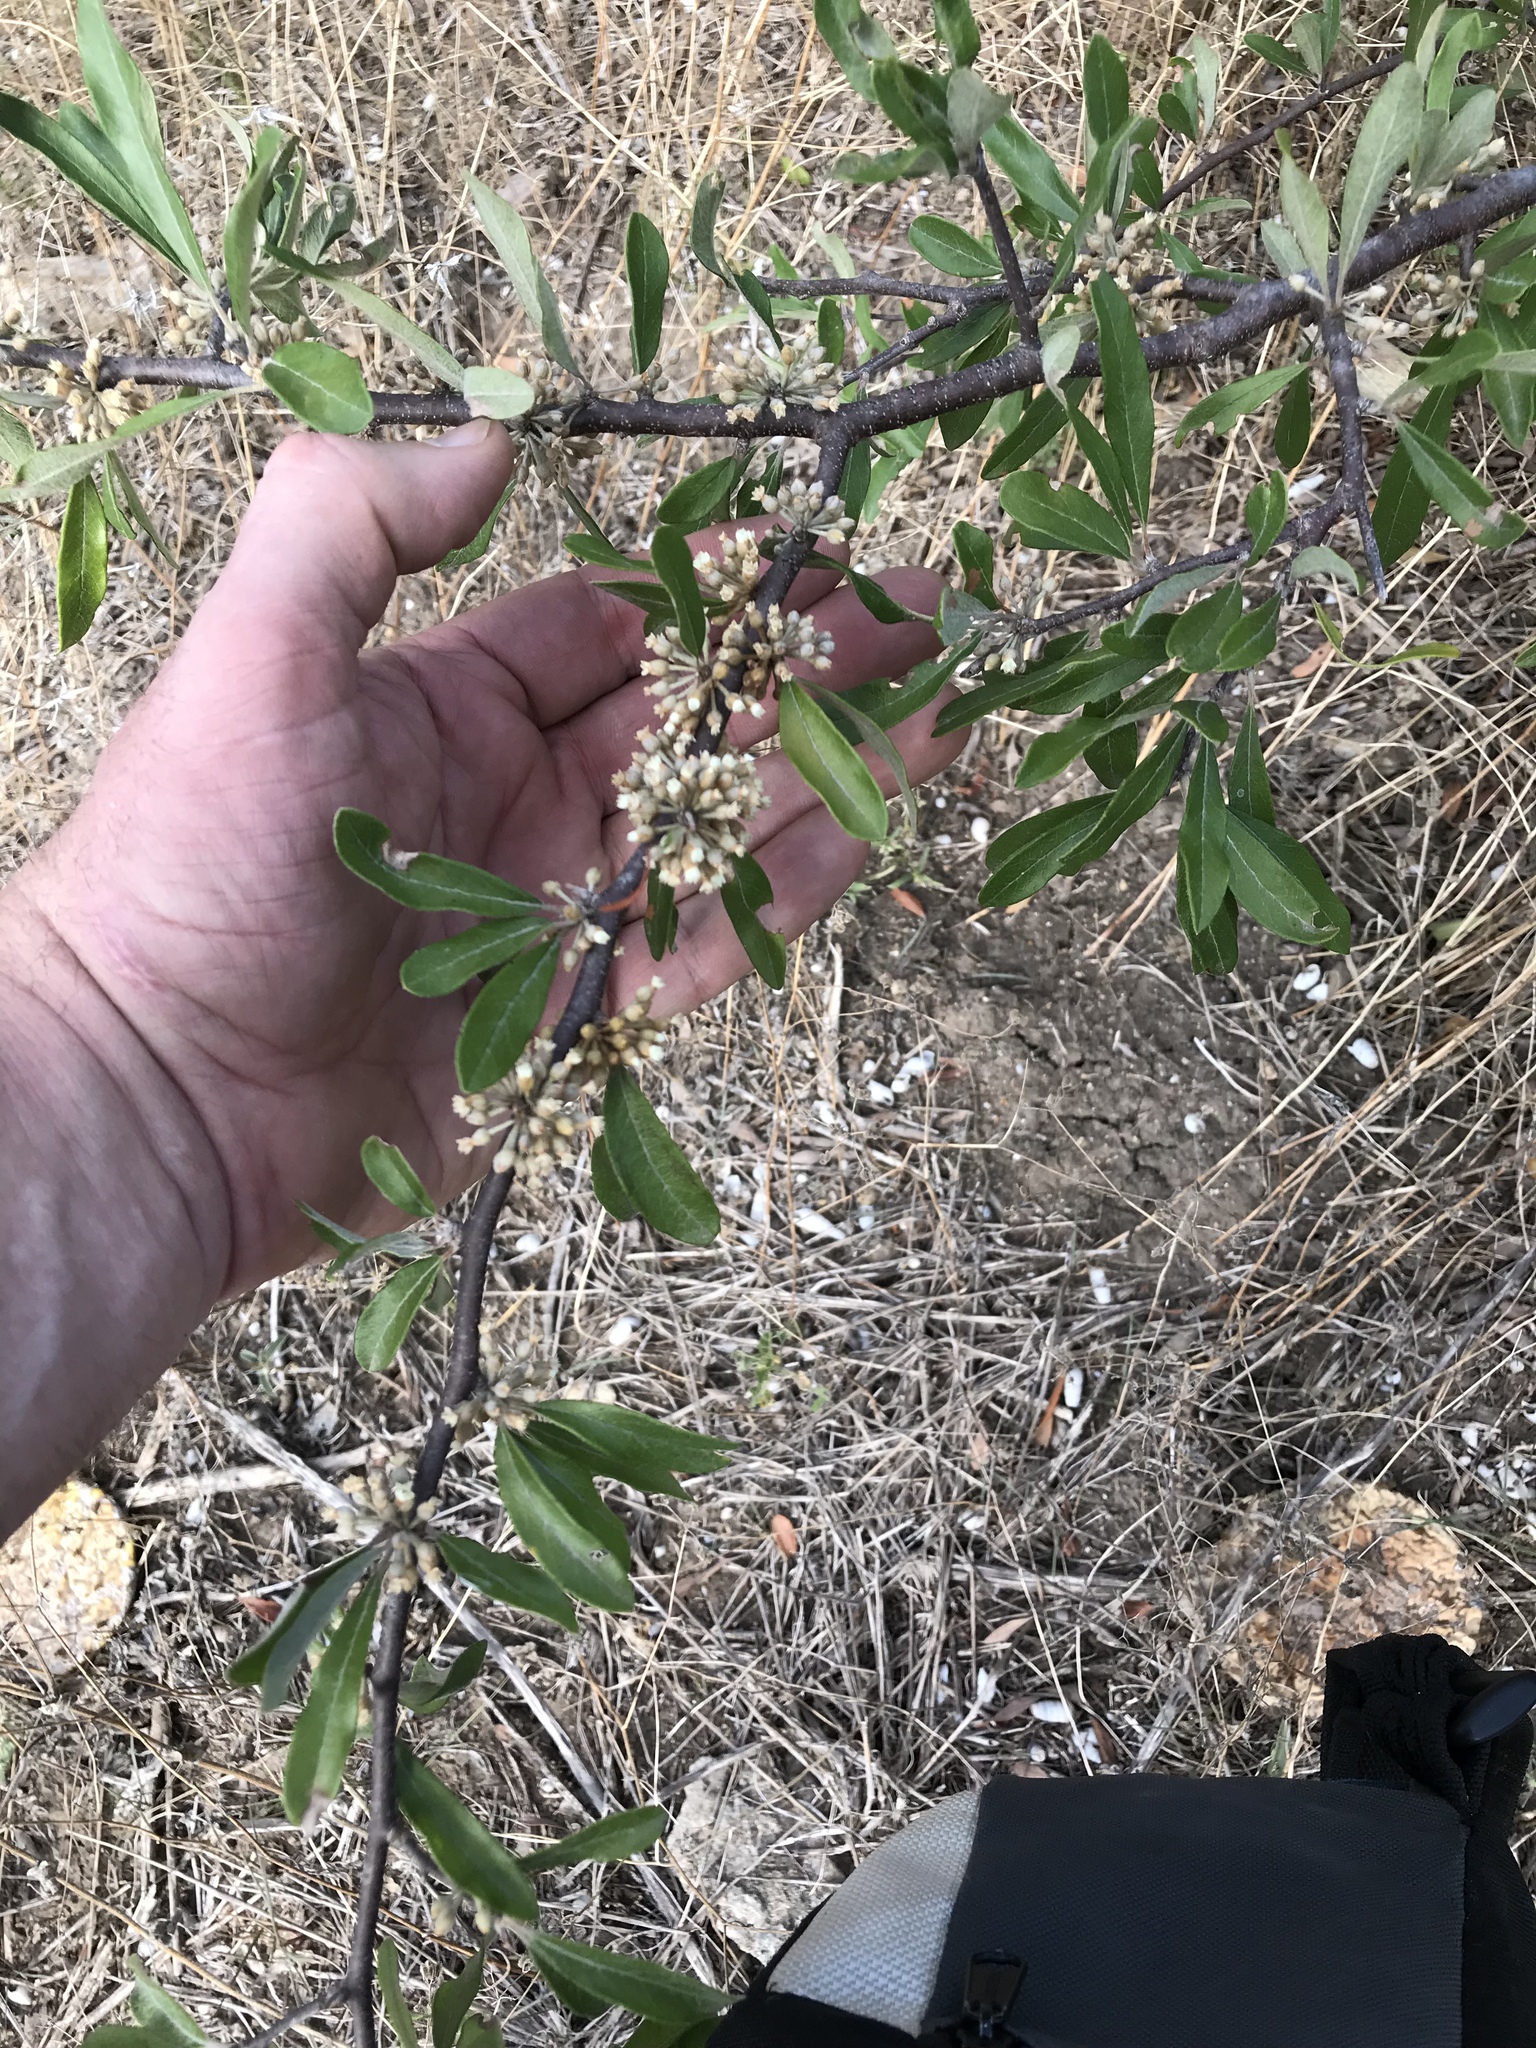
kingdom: Plantae
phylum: Tracheophyta
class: Magnoliopsida
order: Ericales
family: Sapotaceae
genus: Sideroxylon
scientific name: Sideroxylon lanuginosum
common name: Chittamwood
